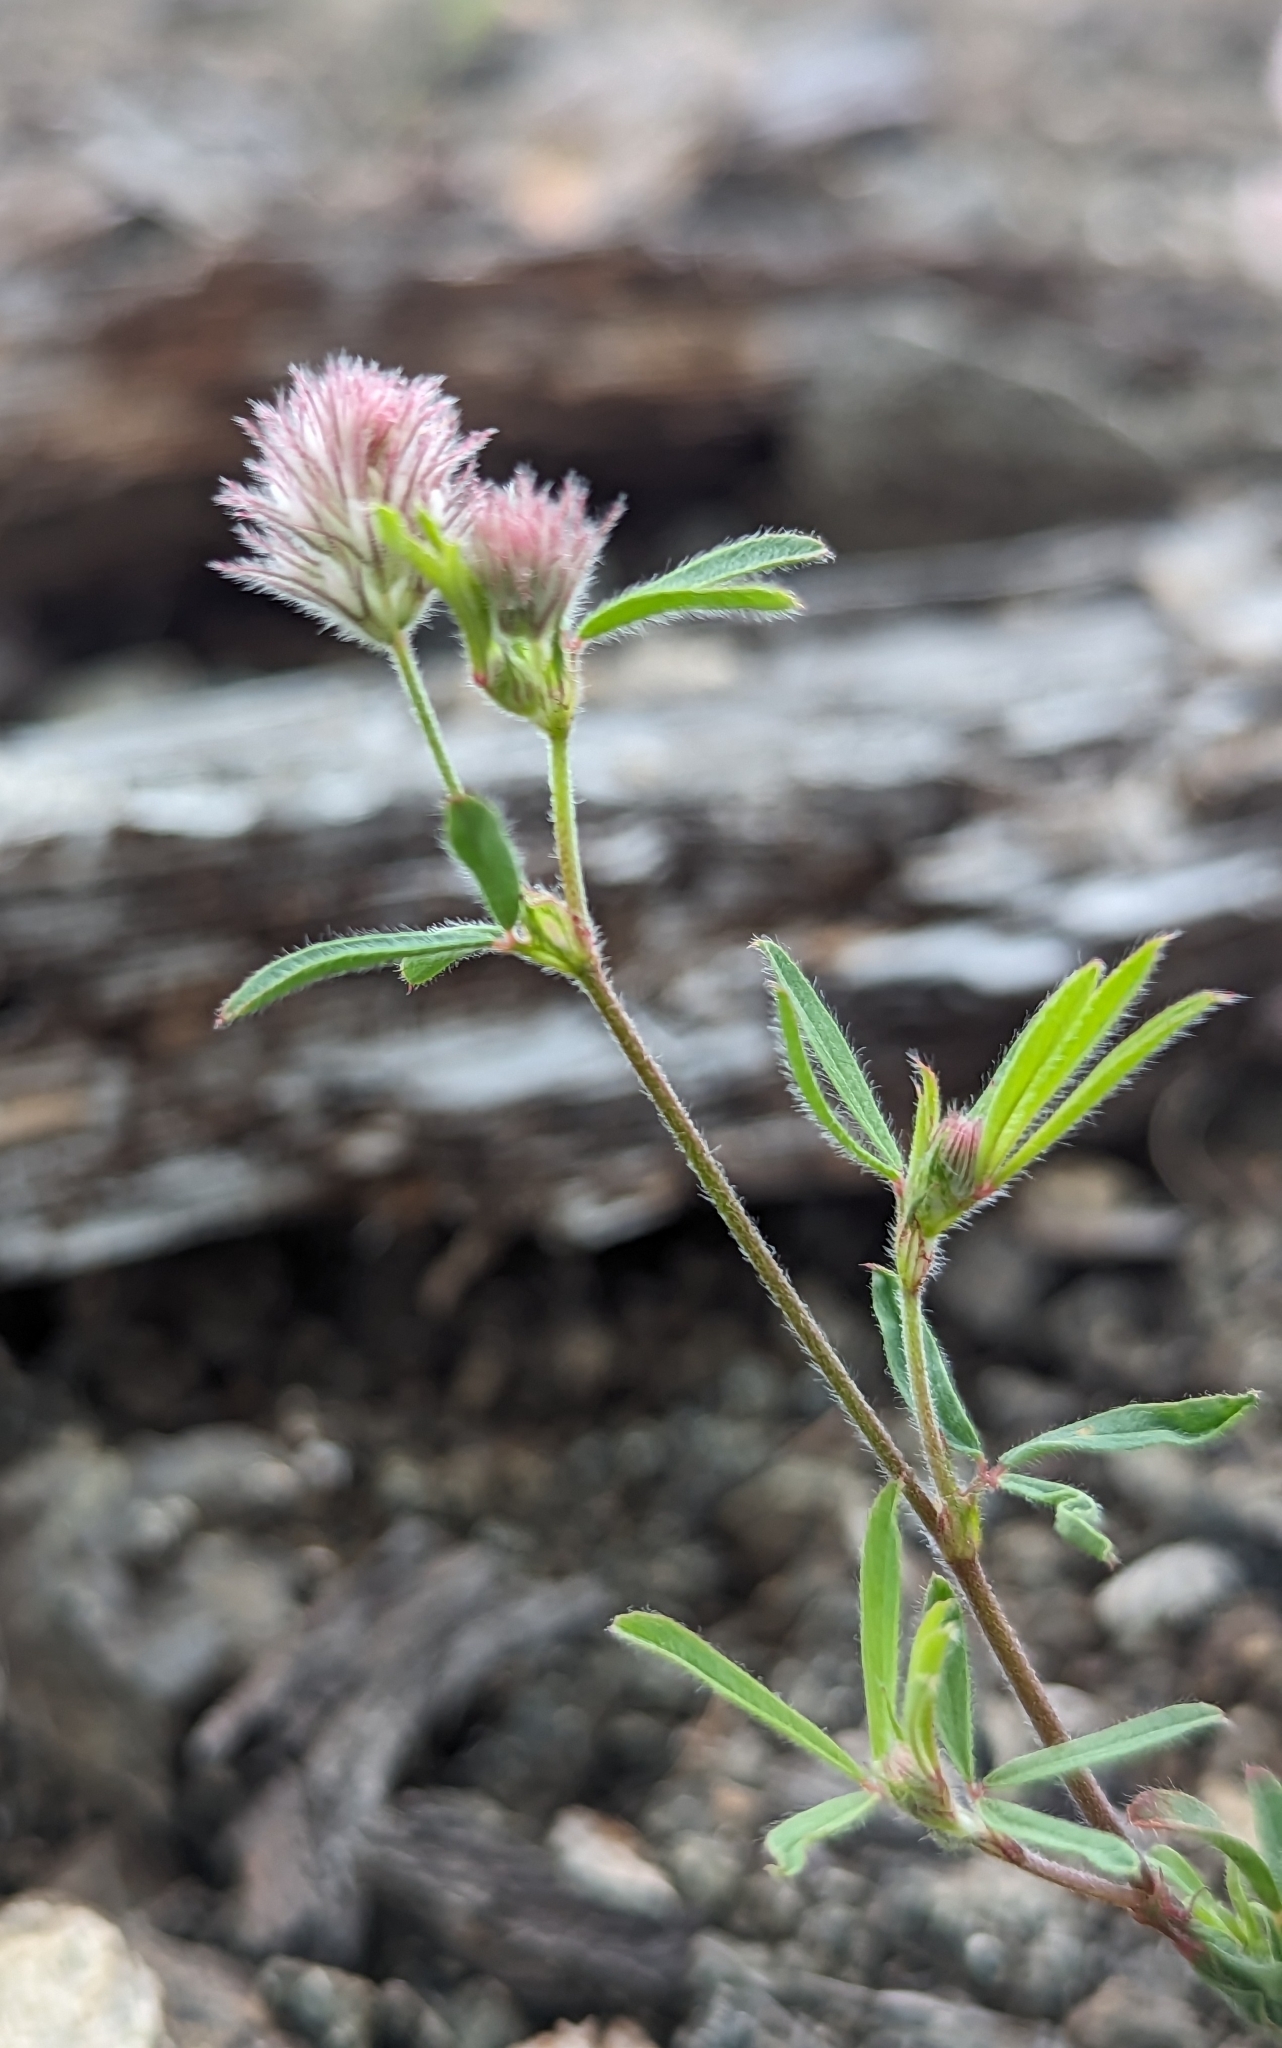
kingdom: Plantae
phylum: Tracheophyta
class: Magnoliopsida
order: Fabales
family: Fabaceae
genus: Trifolium
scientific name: Trifolium arvense
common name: Hare's-foot clover
